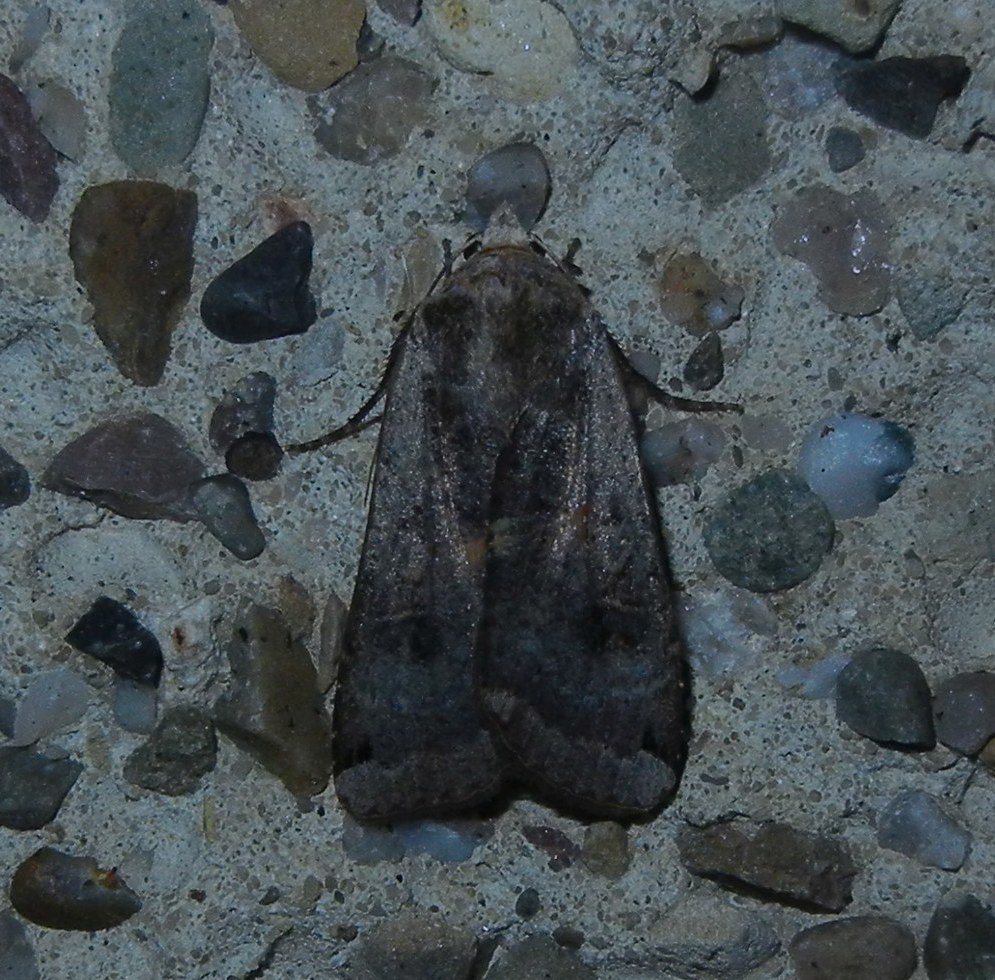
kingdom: Animalia
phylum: Arthropoda
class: Insecta
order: Lepidoptera
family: Noctuidae
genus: Noctua
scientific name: Noctua pronuba
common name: Large yellow underwing
